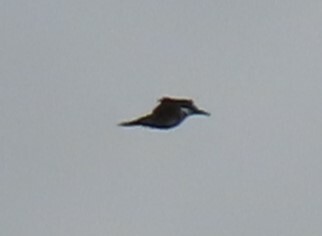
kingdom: Animalia
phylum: Chordata
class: Aves
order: Coraciiformes
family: Alcedinidae
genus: Megaceryle
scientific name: Megaceryle alcyon
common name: Belted kingfisher
